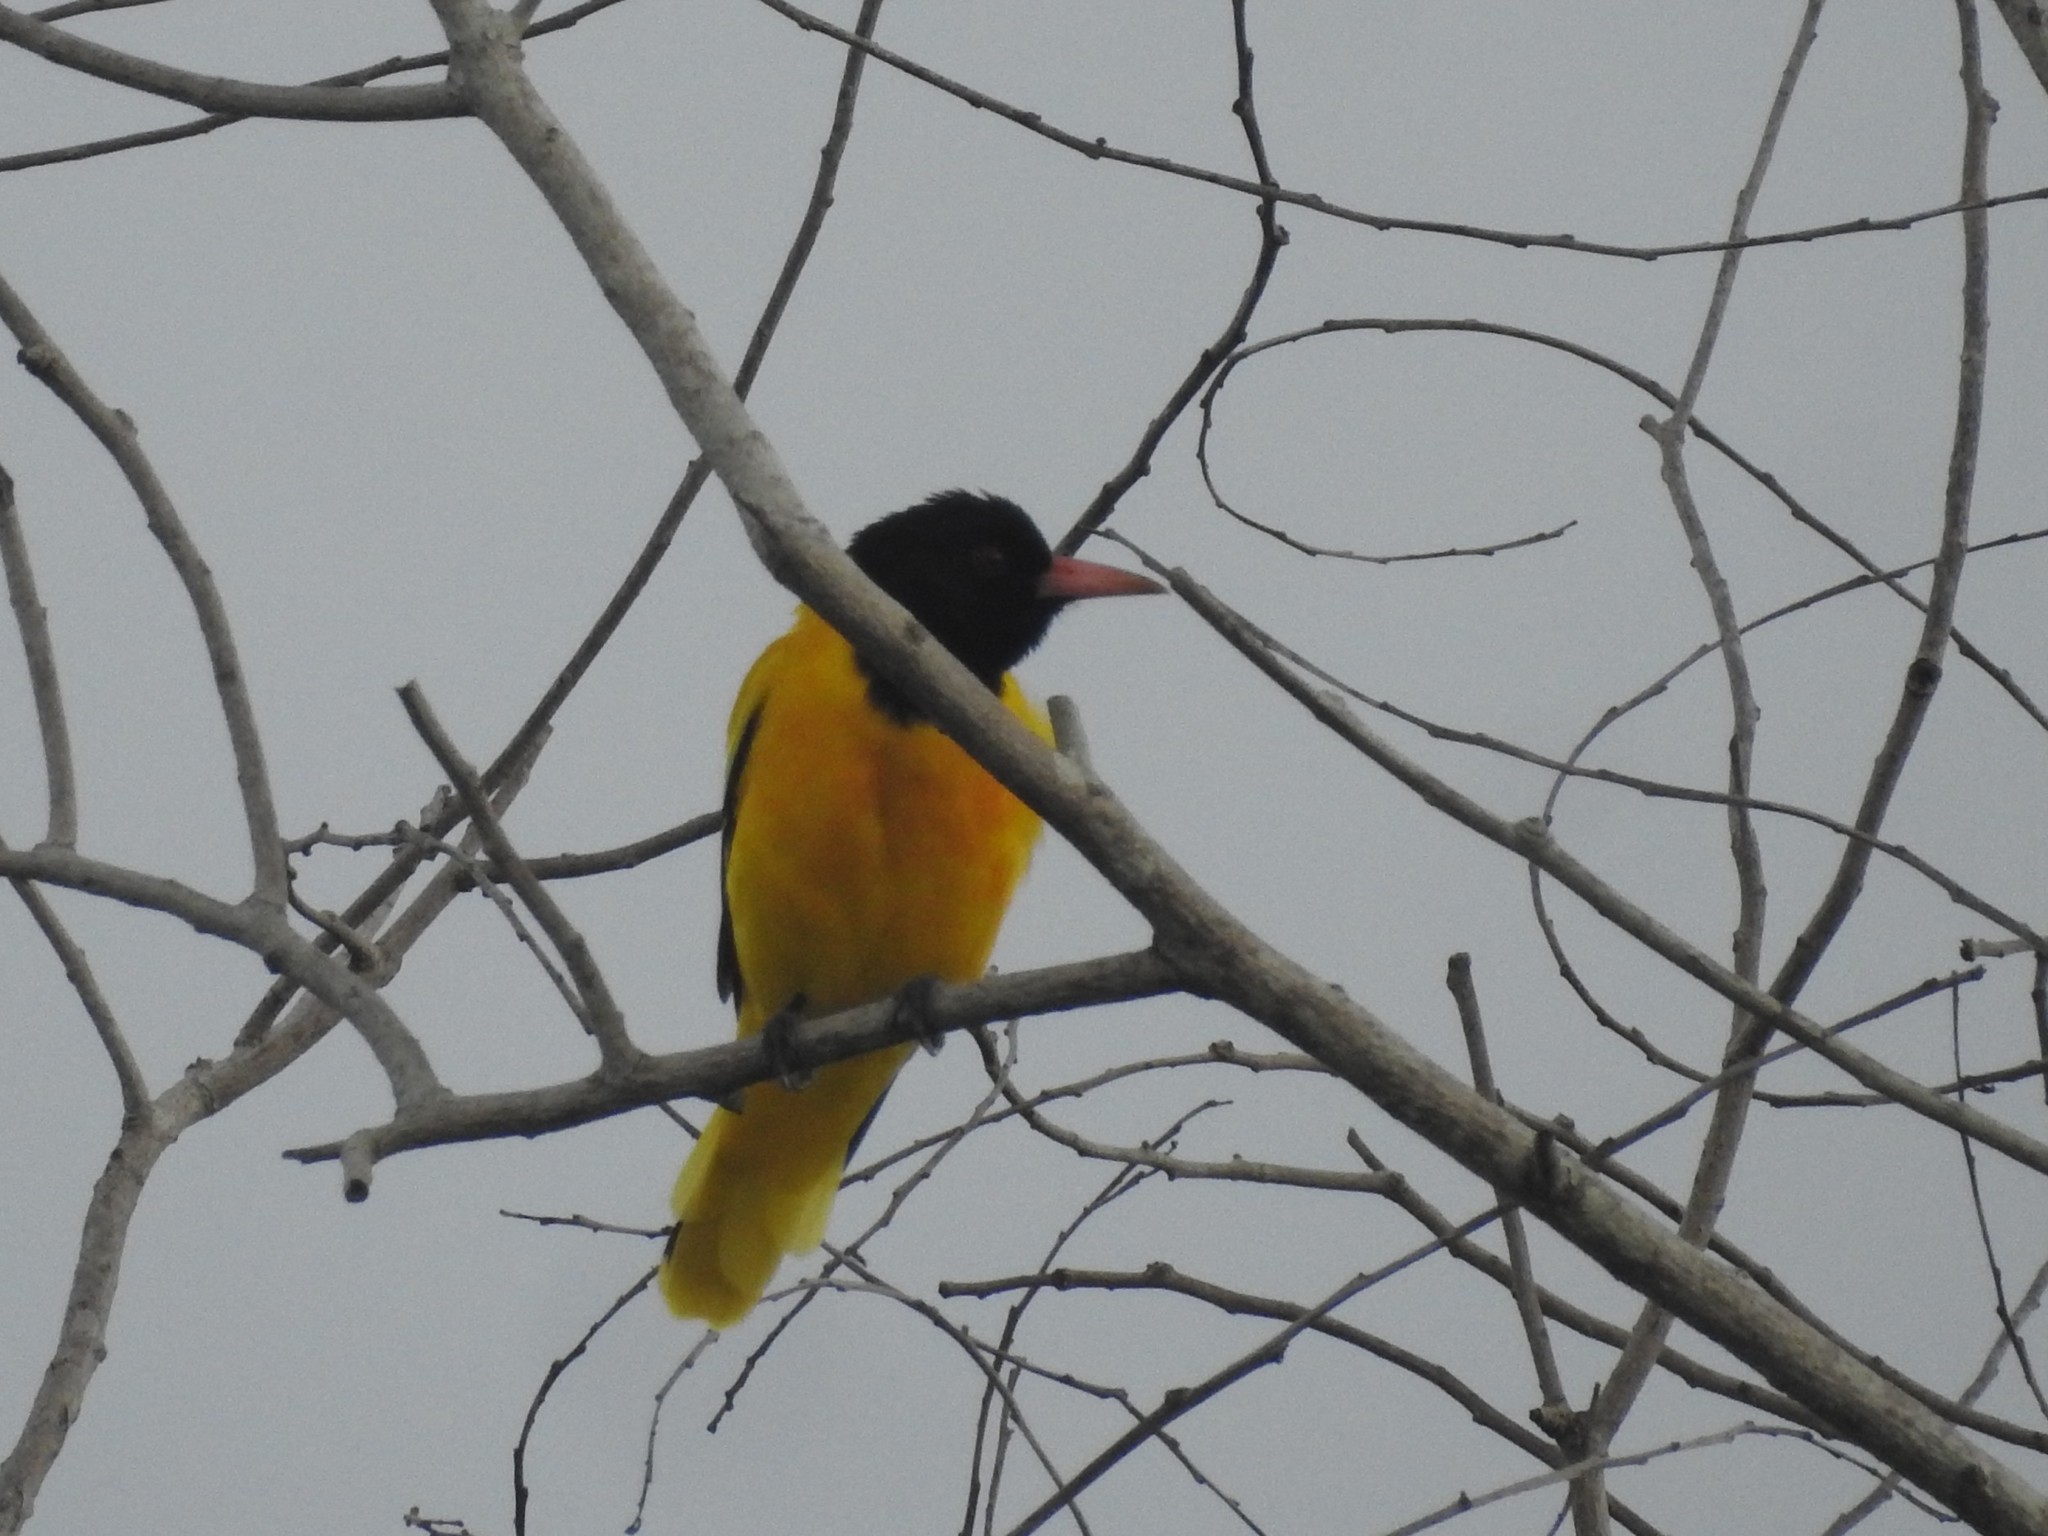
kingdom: Animalia
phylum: Chordata
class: Aves
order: Passeriformes
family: Oriolidae
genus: Oriolus
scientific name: Oriolus xanthornus
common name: Black-hooded oriole
